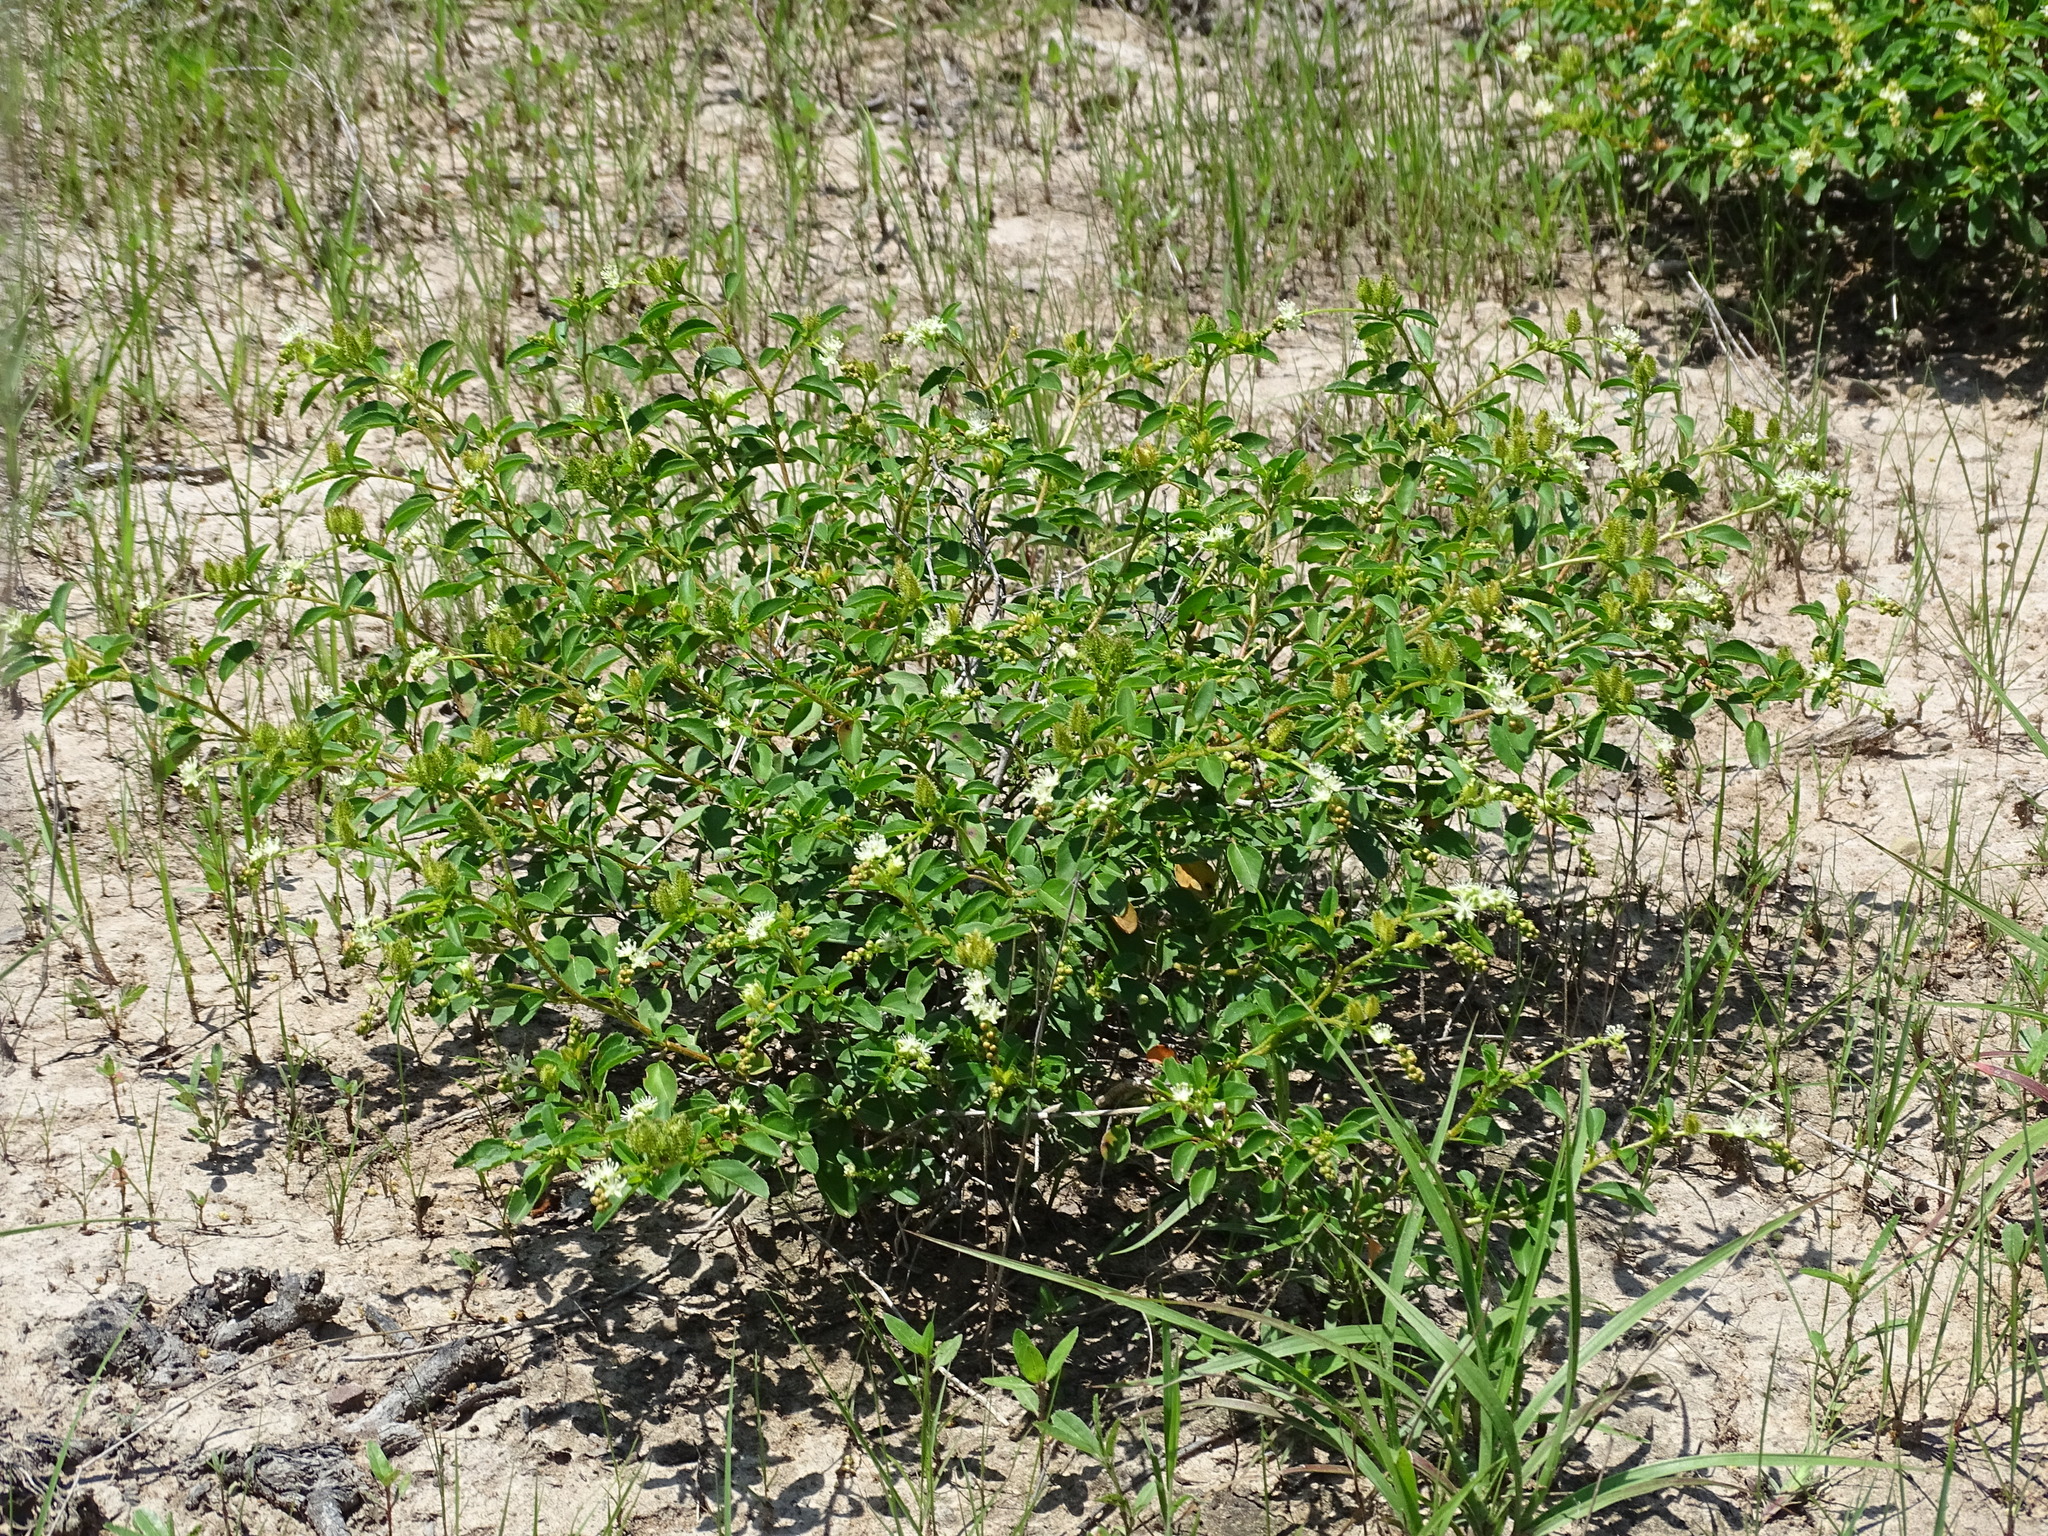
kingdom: Plantae
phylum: Tracheophyta
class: Magnoliopsida
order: Malpighiales
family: Euphorbiaceae
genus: Croton
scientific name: Croton ovalifolius
